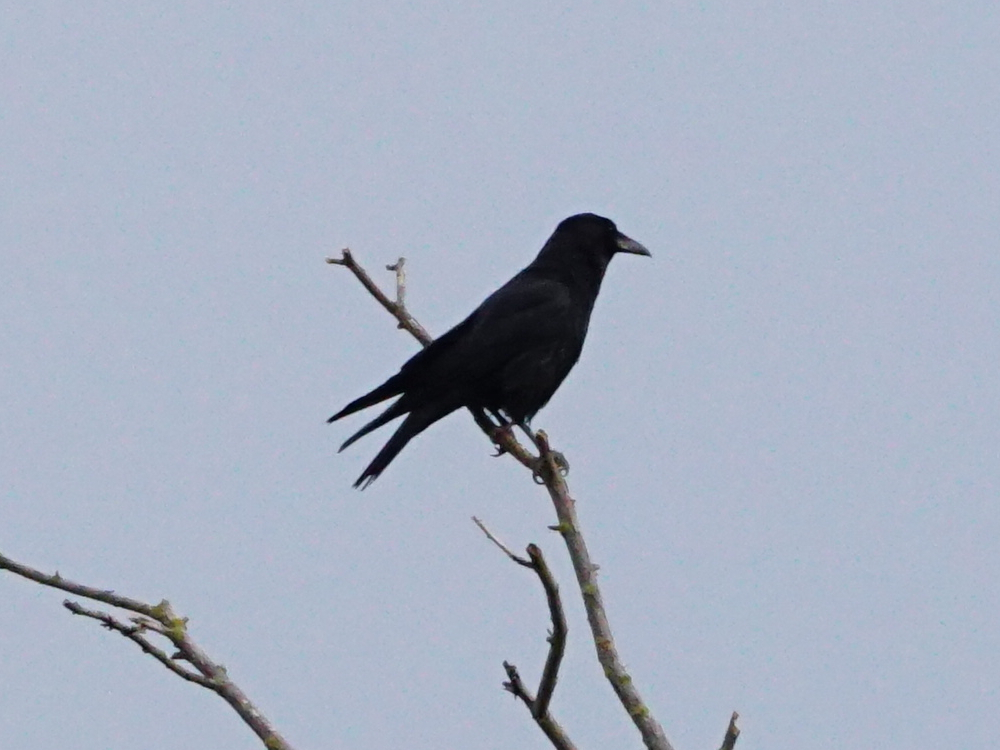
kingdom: Animalia
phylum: Chordata
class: Aves
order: Passeriformes
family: Corvidae
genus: Corvus
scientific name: Corvus corone
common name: Carrion crow
